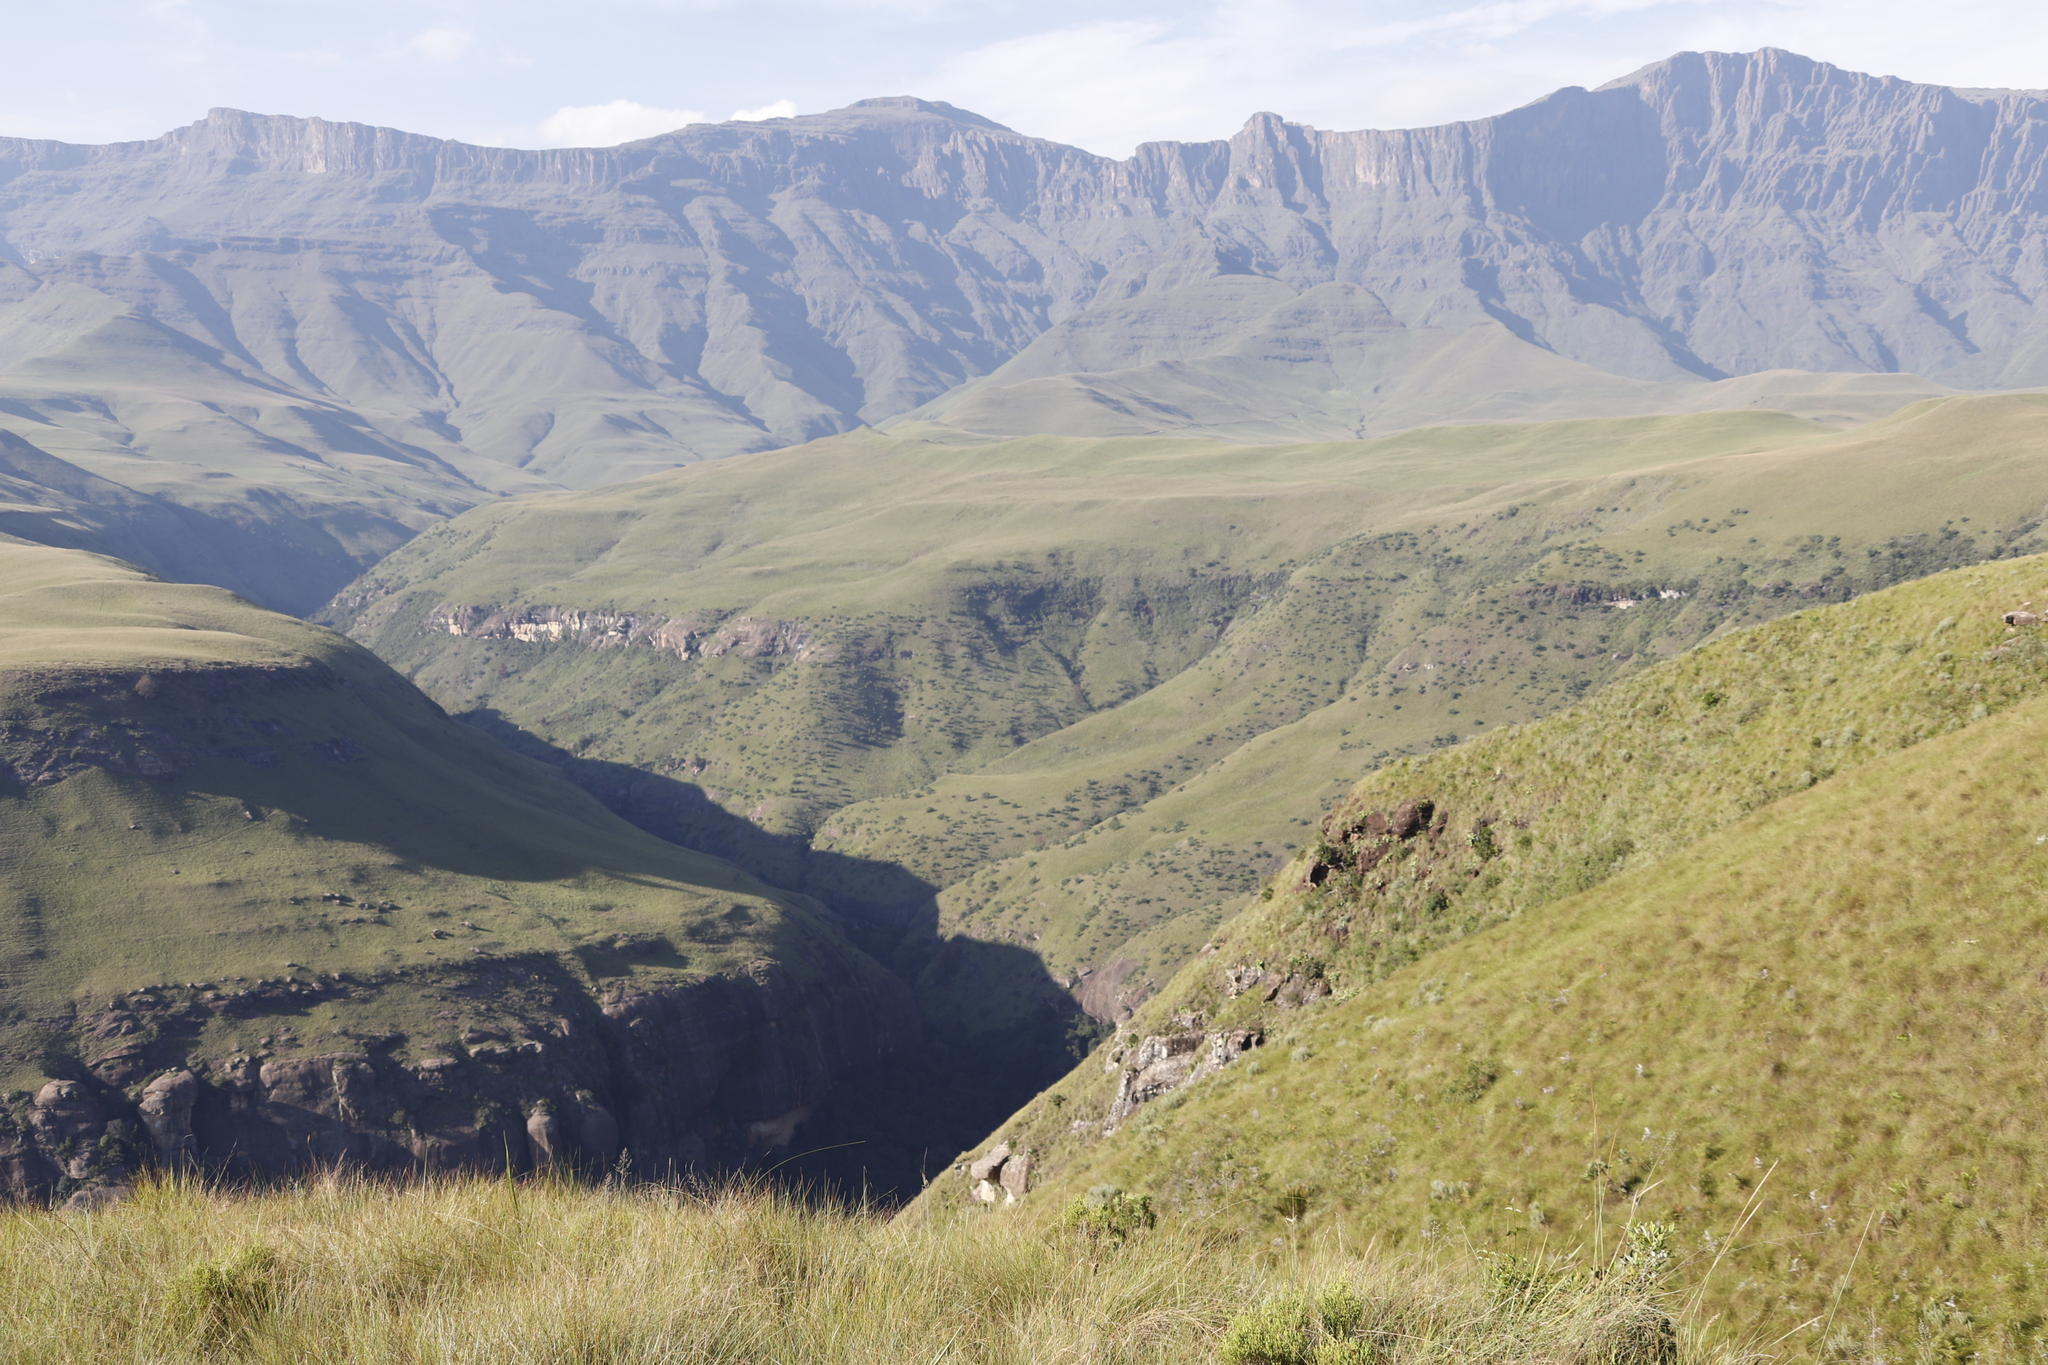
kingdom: Plantae
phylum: Tracheophyta
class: Magnoliopsida
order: Proteales
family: Proteaceae
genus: Protea
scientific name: Protea caffra
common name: Common sugarbush
